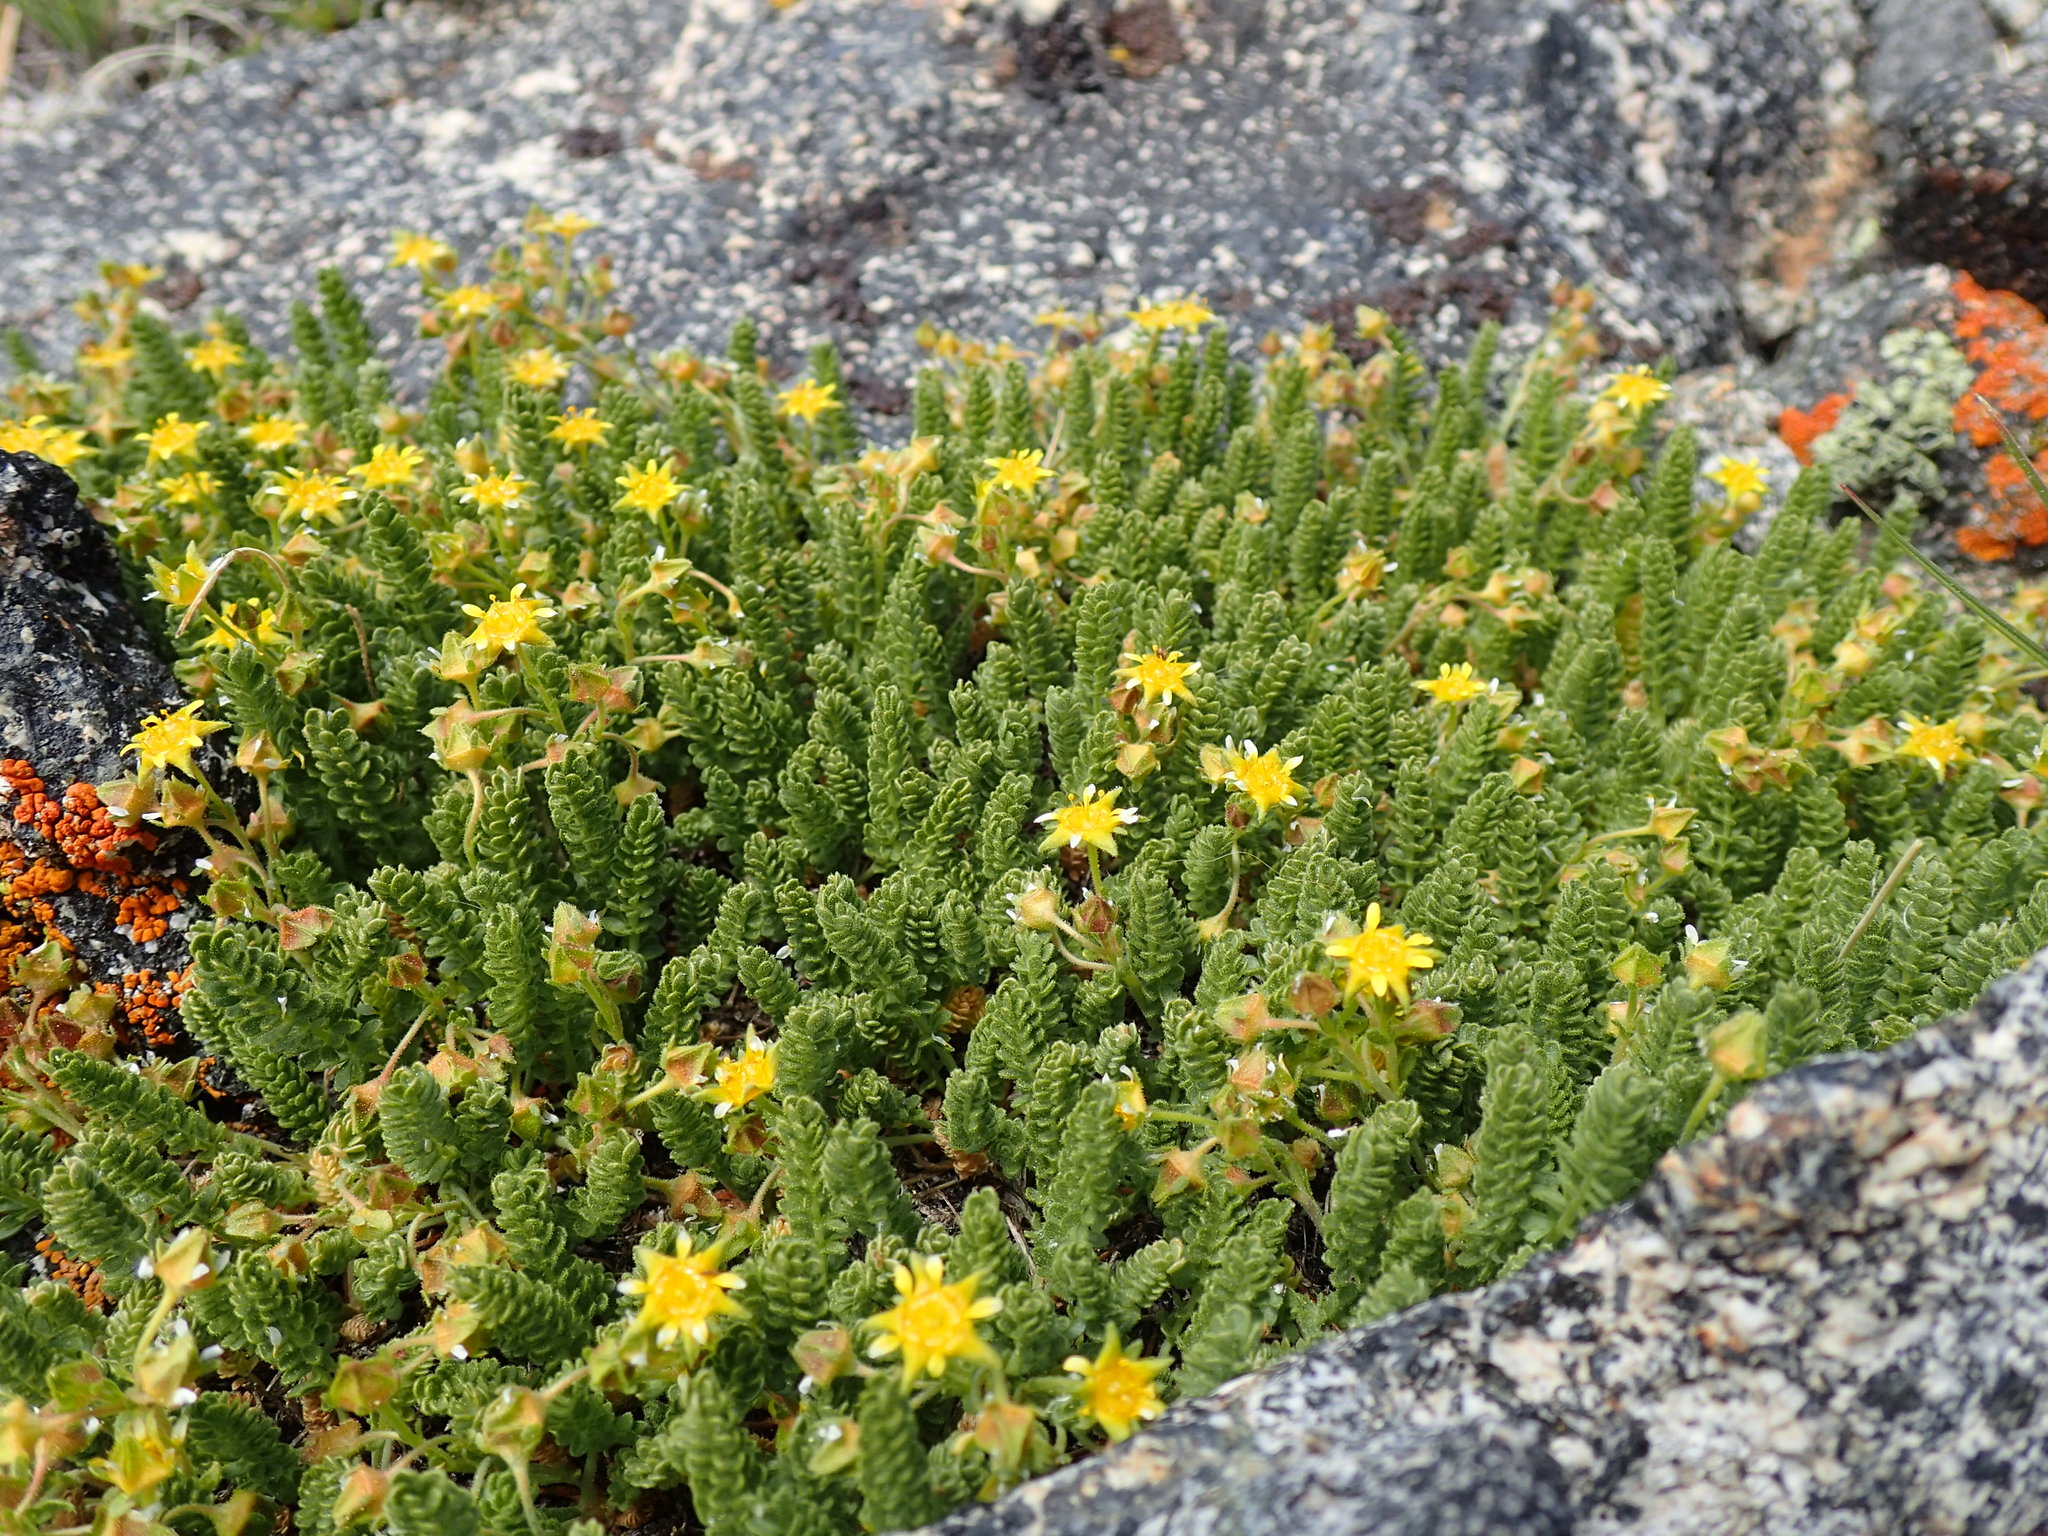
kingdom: Plantae
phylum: Tracheophyta
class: Magnoliopsida
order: Rosales
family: Rosaceae
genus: Potentilla
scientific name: Potentilla shockleyi
